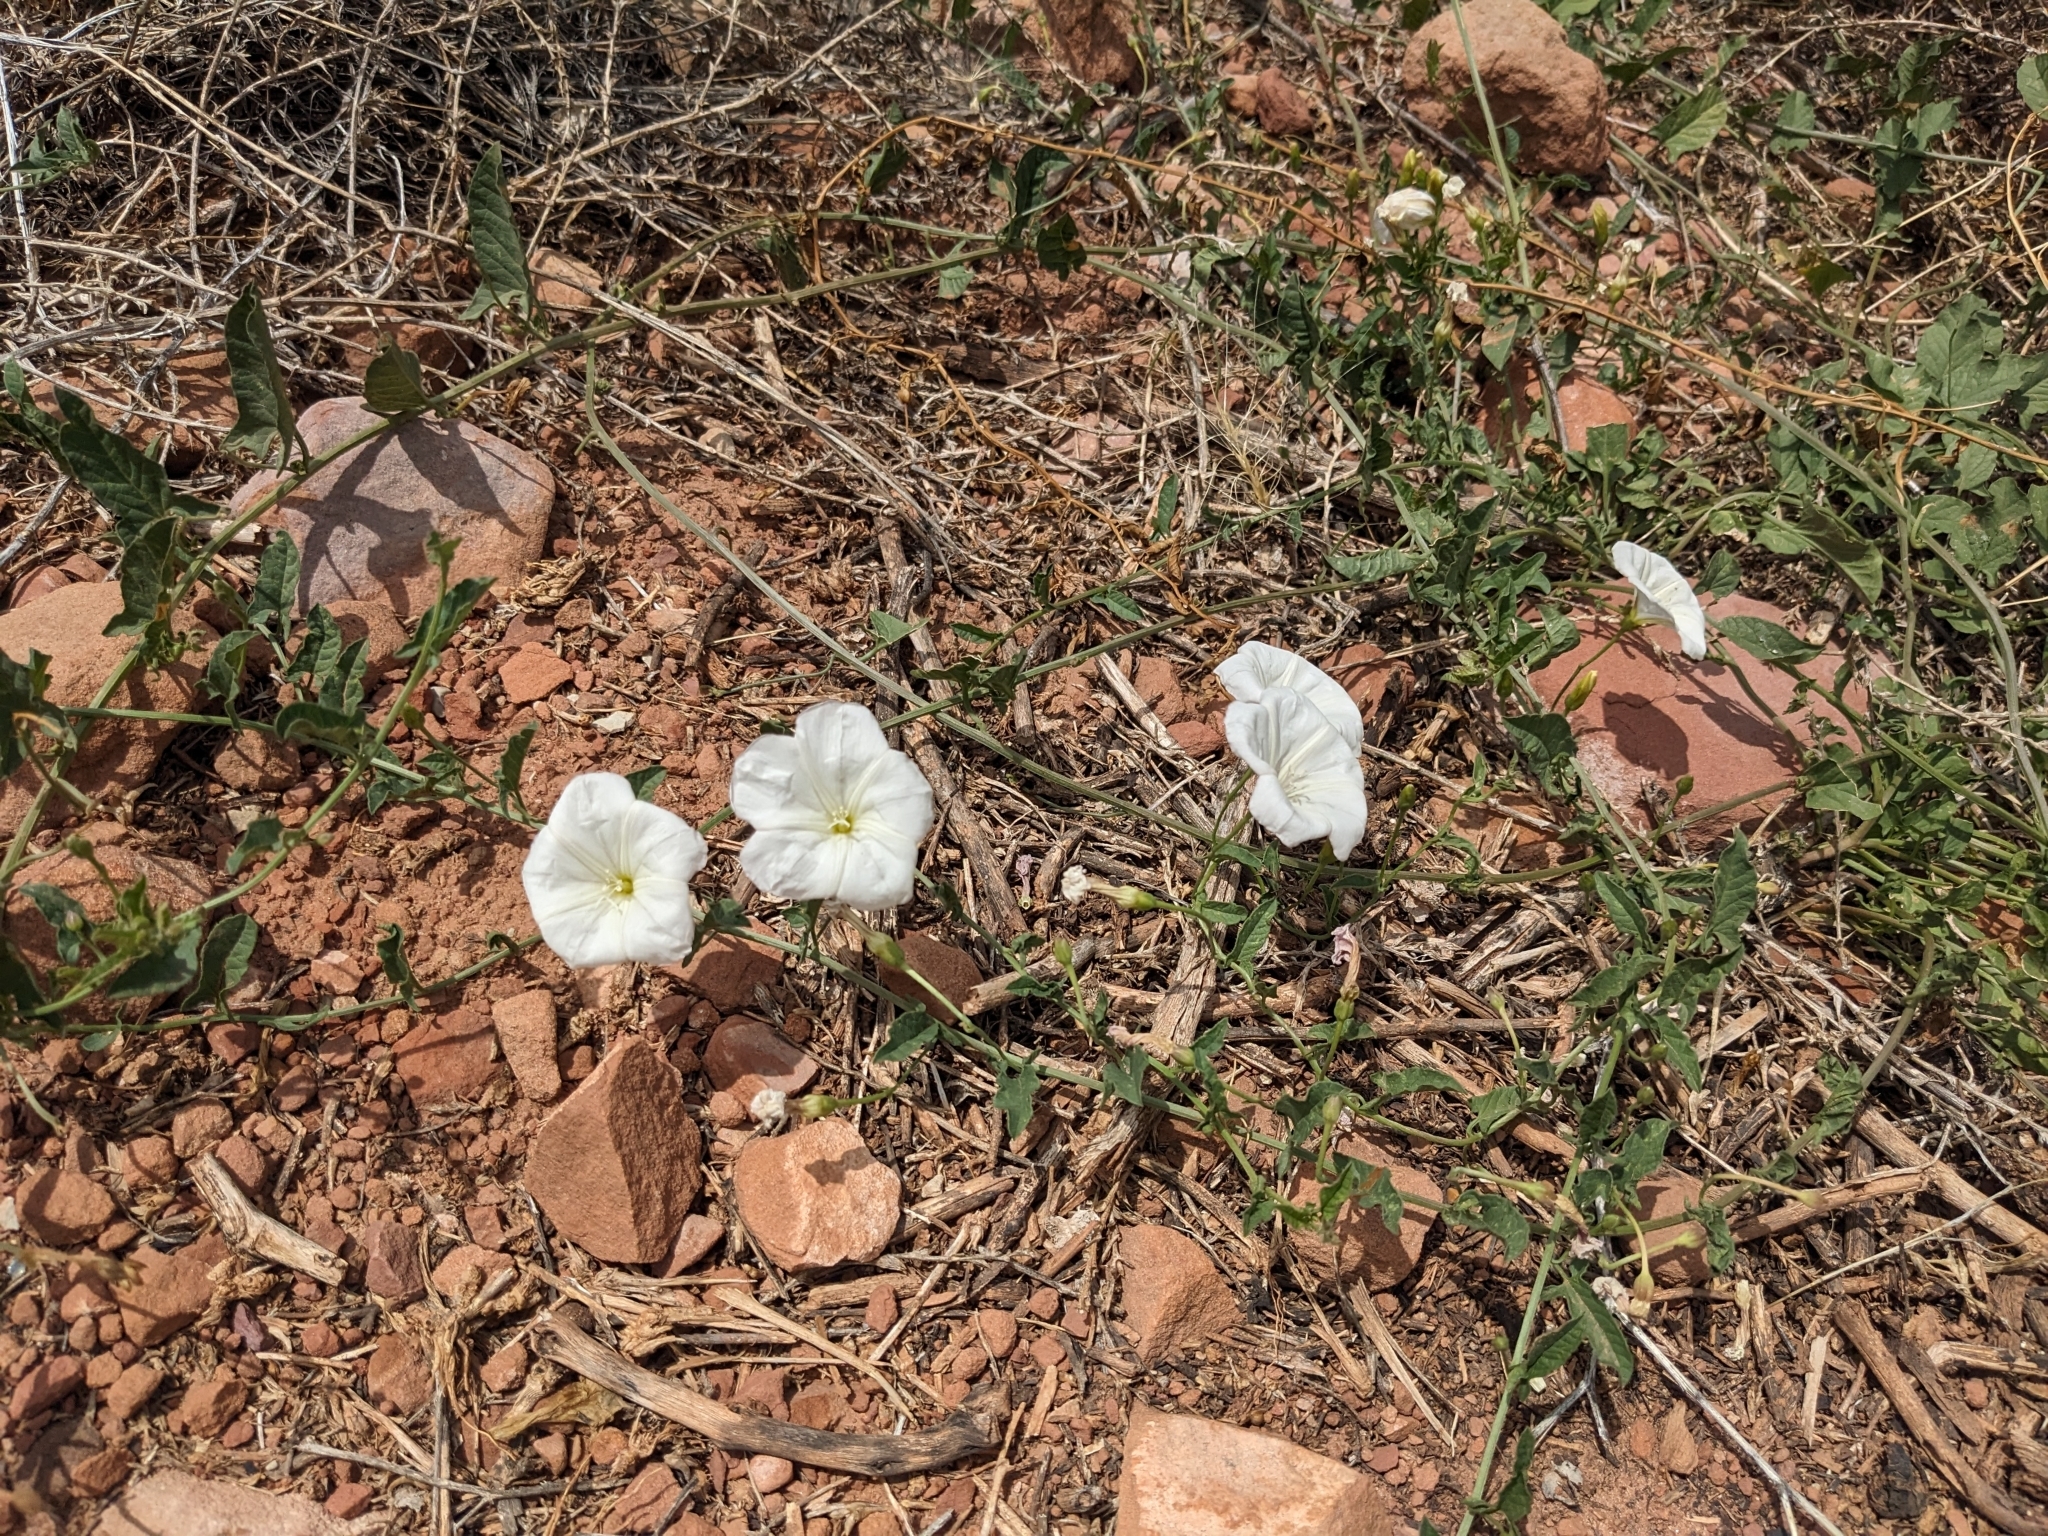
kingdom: Plantae
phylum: Tracheophyta
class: Magnoliopsida
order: Solanales
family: Convolvulaceae
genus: Convolvulus
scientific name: Convolvulus arvensis
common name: Field bindweed
